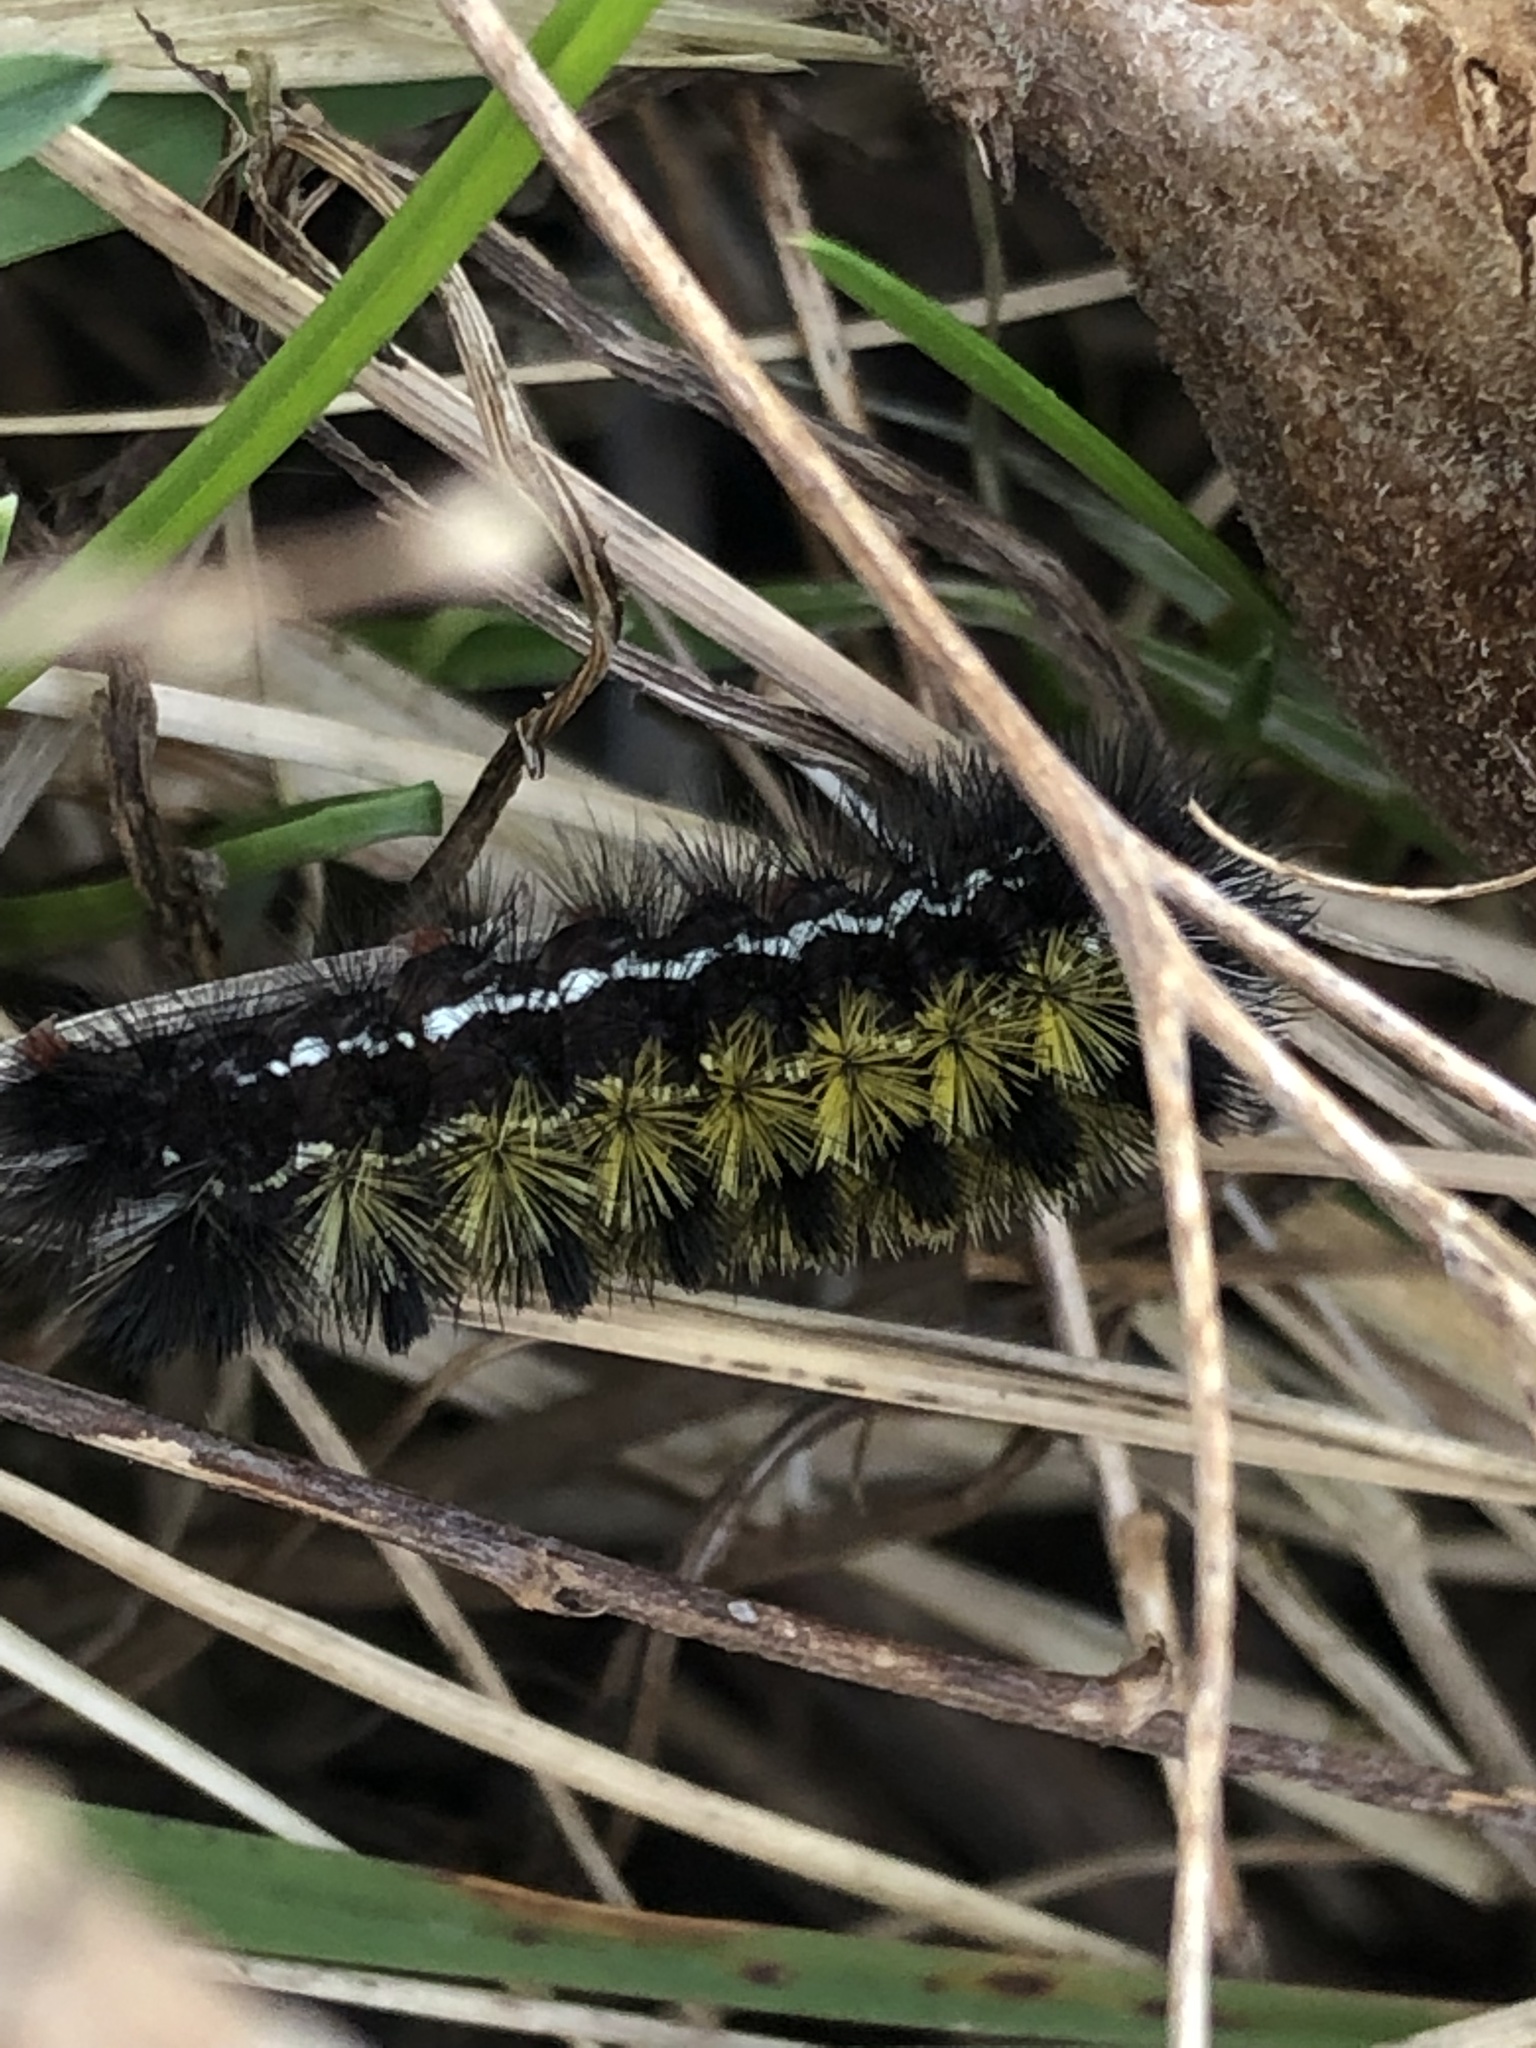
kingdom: Animalia
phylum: Arthropoda
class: Insecta
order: Lepidoptera
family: Erebidae
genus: Ctenucha
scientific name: Ctenucha virginica
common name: Virginia ctenucha moth
